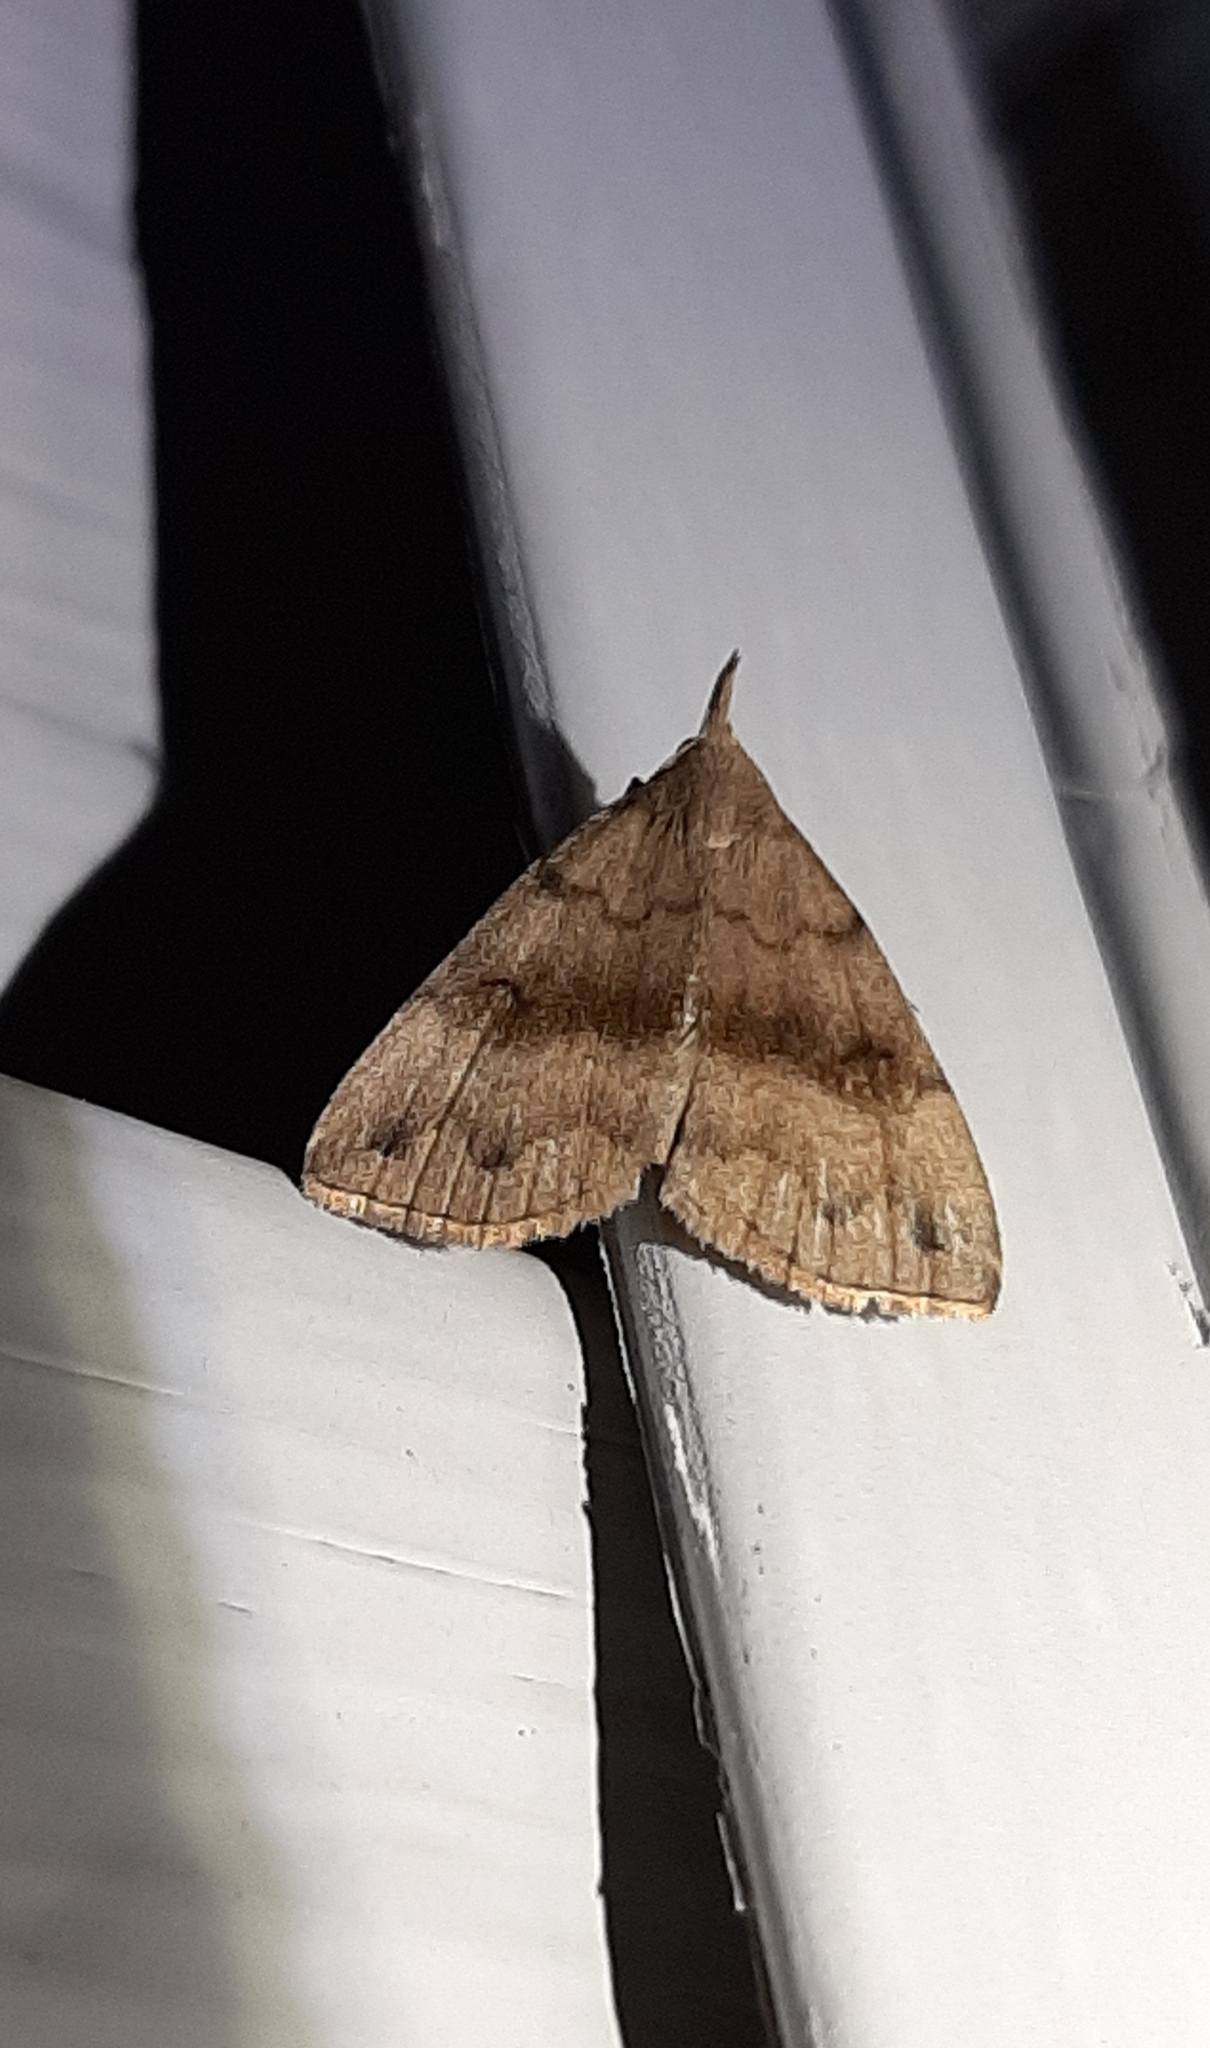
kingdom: Animalia
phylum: Arthropoda
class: Insecta
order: Lepidoptera
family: Erebidae
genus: Phalaenostola
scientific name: Phalaenostola eumelusalis
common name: Dark phalaenostola moth
